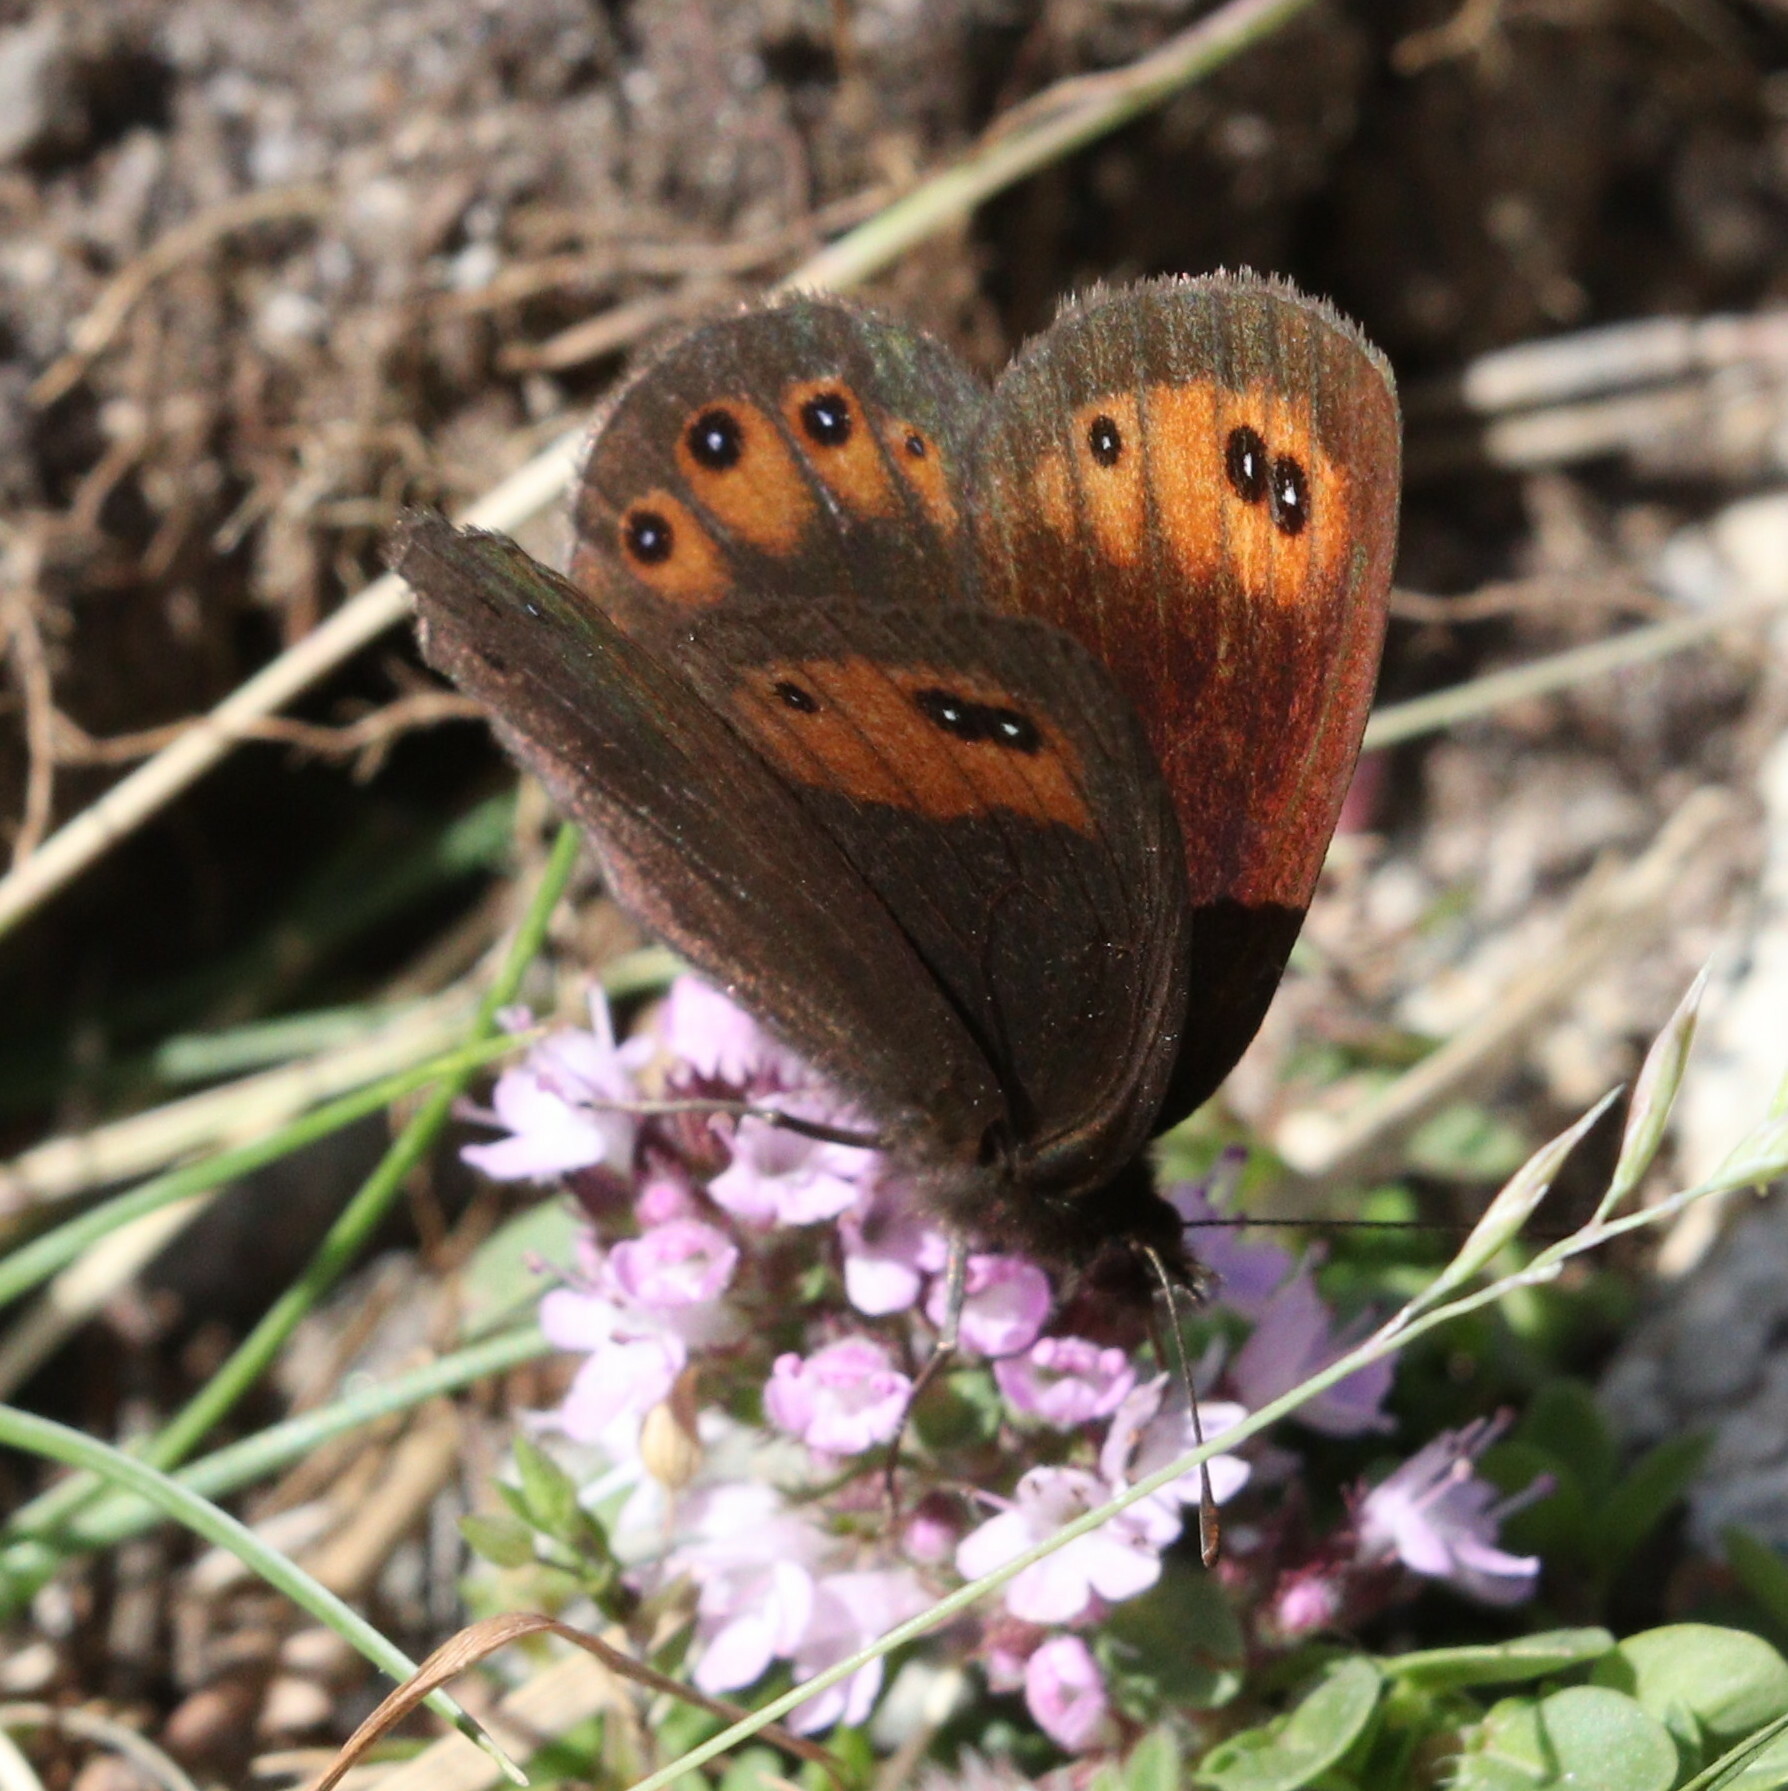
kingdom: Animalia
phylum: Arthropoda
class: Insecta
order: Lepidoptera
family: Nymphalidae
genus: Erebia
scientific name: Erebia meolans
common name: Piedmont ringlet
